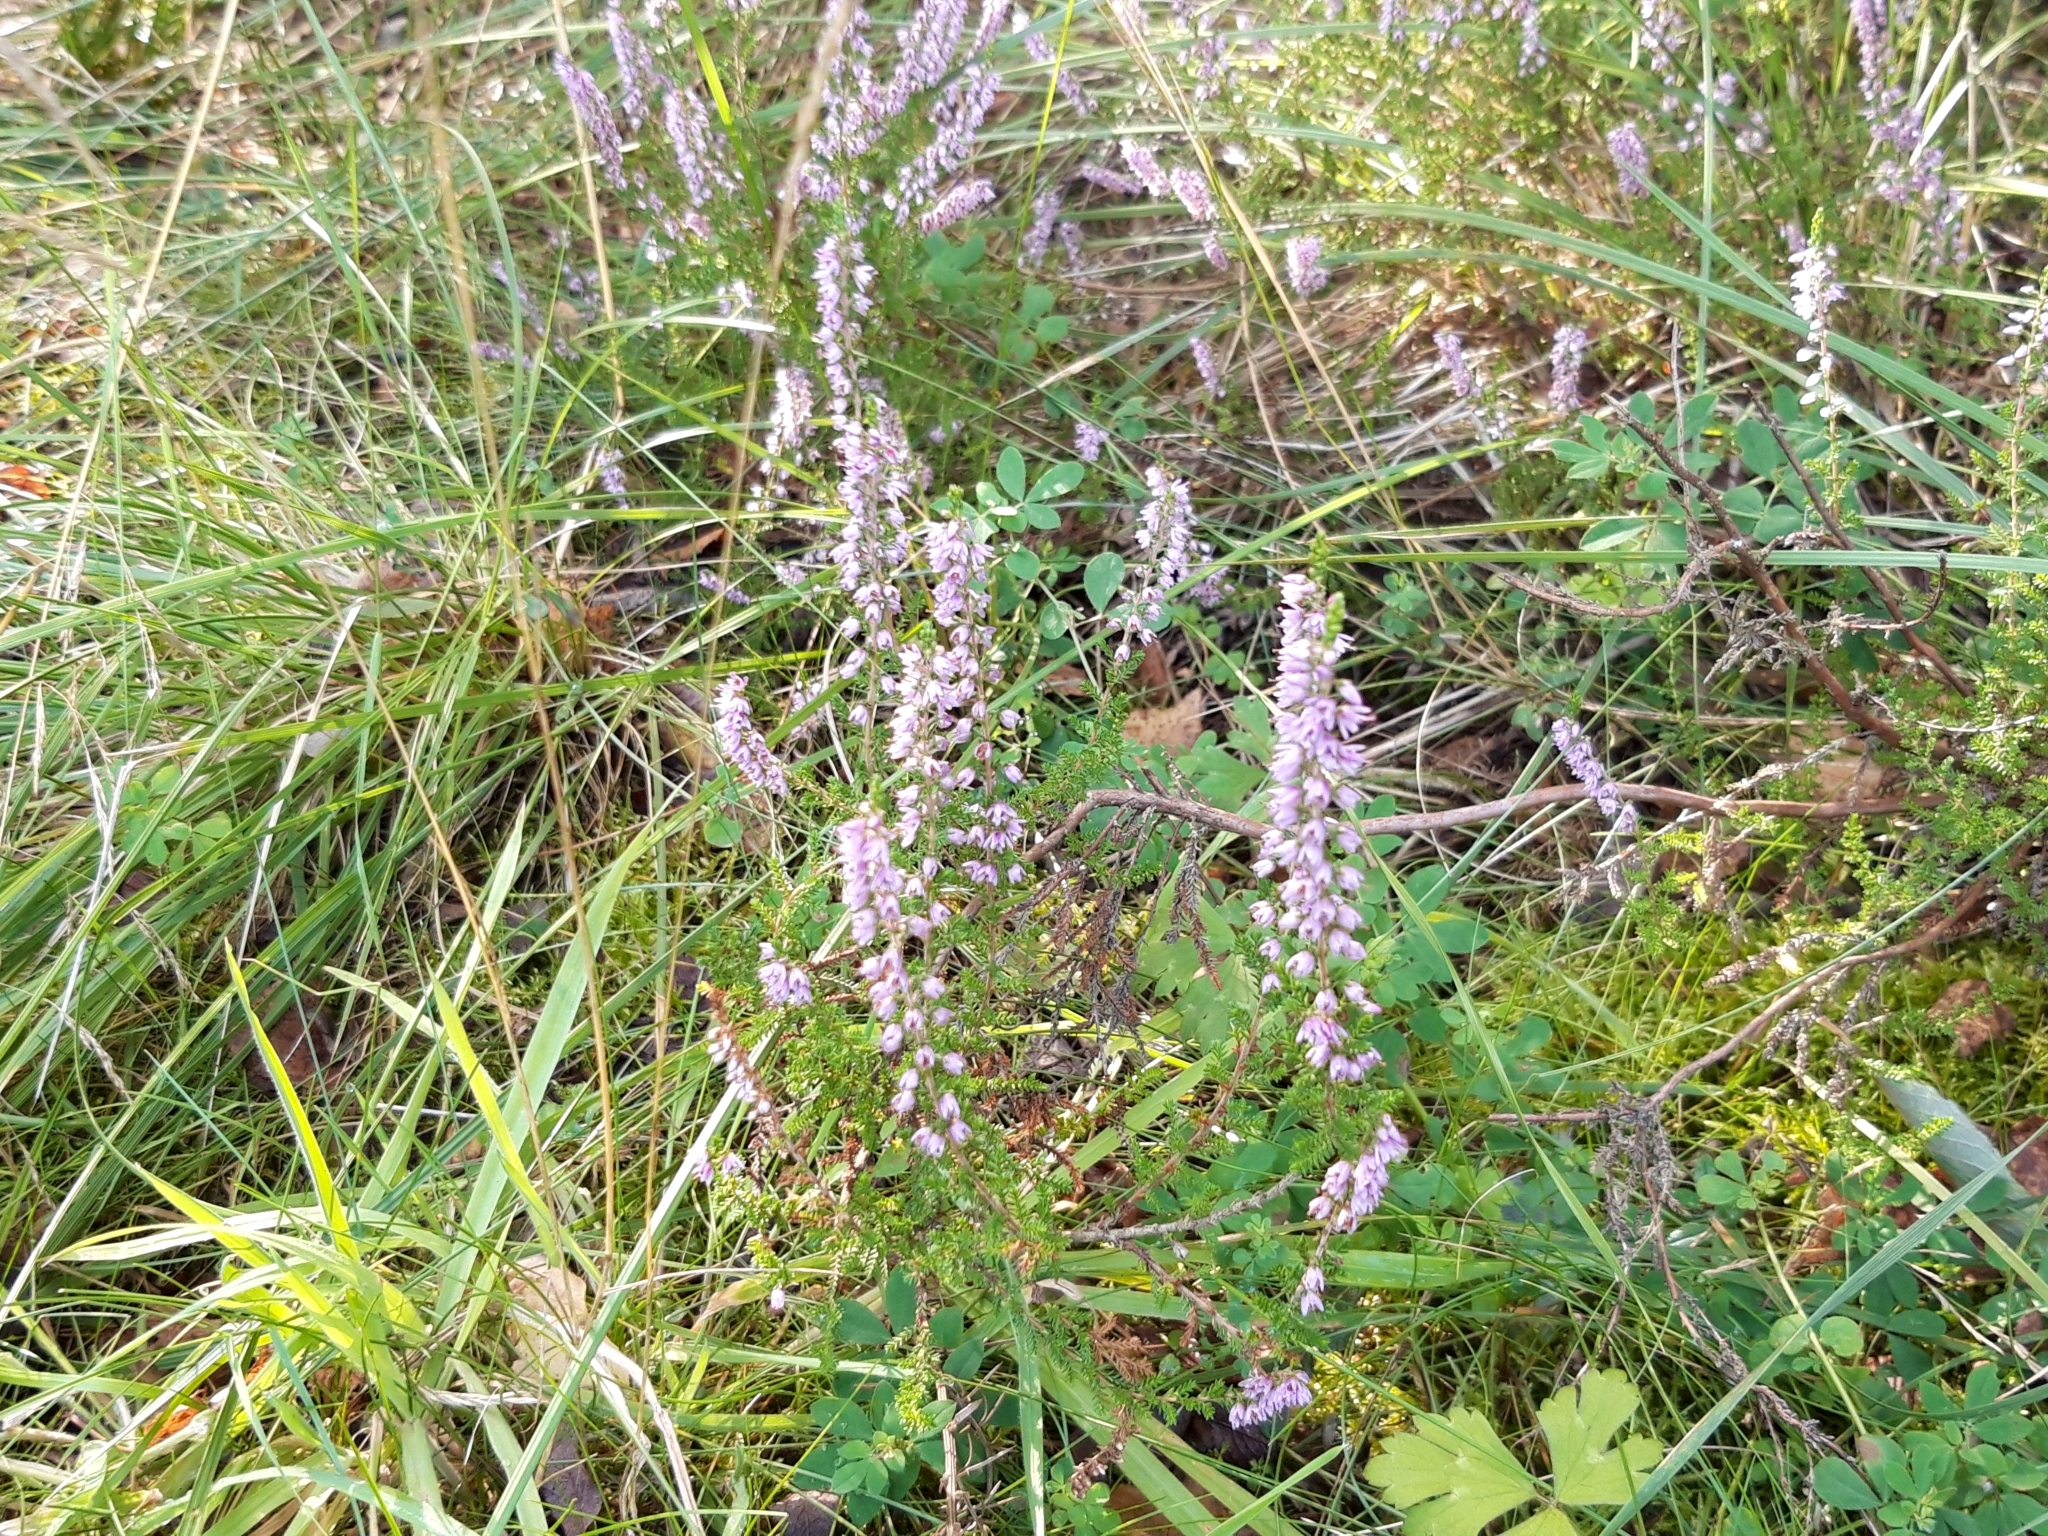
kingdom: Plantae
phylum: Tracheophyta
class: Magnoliopsida
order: Ericales
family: Ericaceae
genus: Calluna
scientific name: Calluna vulgaris
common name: Heather
